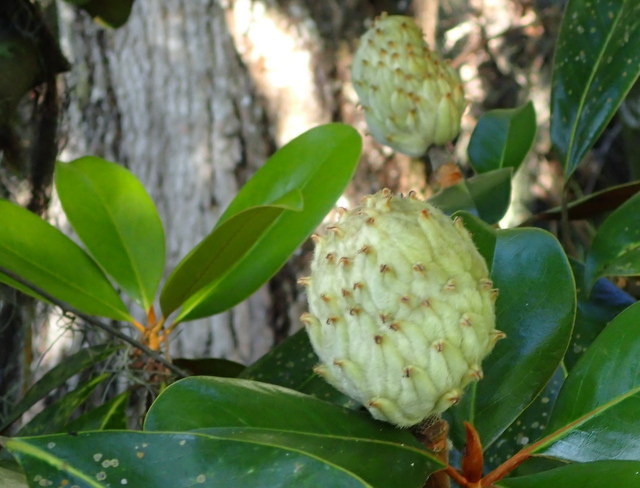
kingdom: Plantae
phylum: Tracheophyta
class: Magnoliopsida
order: Magnoliales
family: Magnoliaceae
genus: Magnolia
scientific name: Magnolia grandiflora
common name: Southern magnolia
